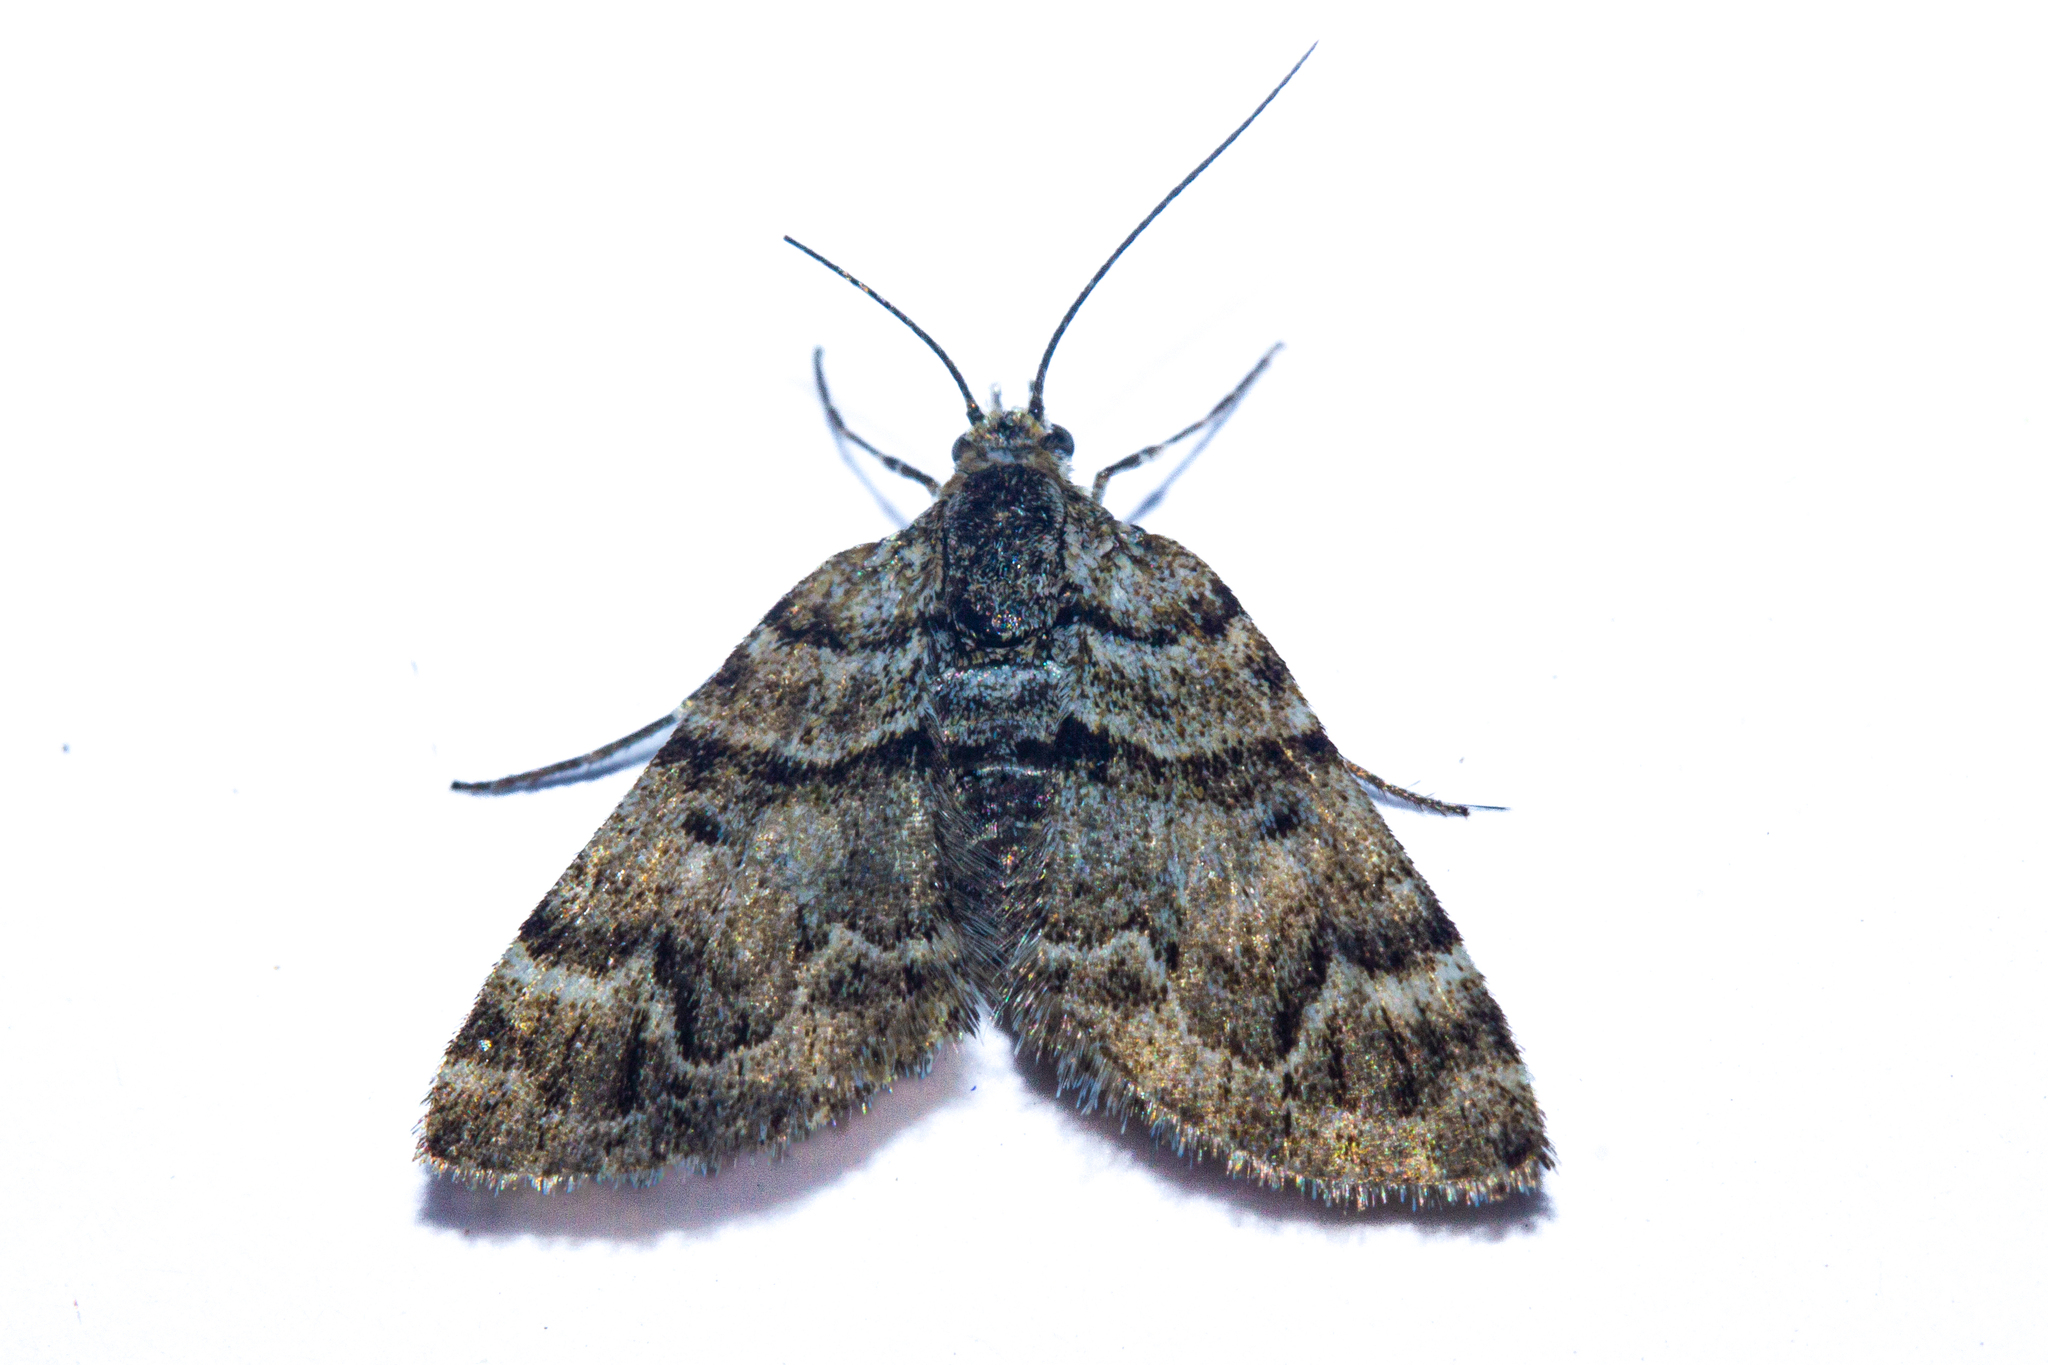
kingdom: Animalia
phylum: Arthropoda
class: Insecta
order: Lepidoptera
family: Geometridae
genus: Arctesthes
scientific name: Arctesthes catapyrrha
